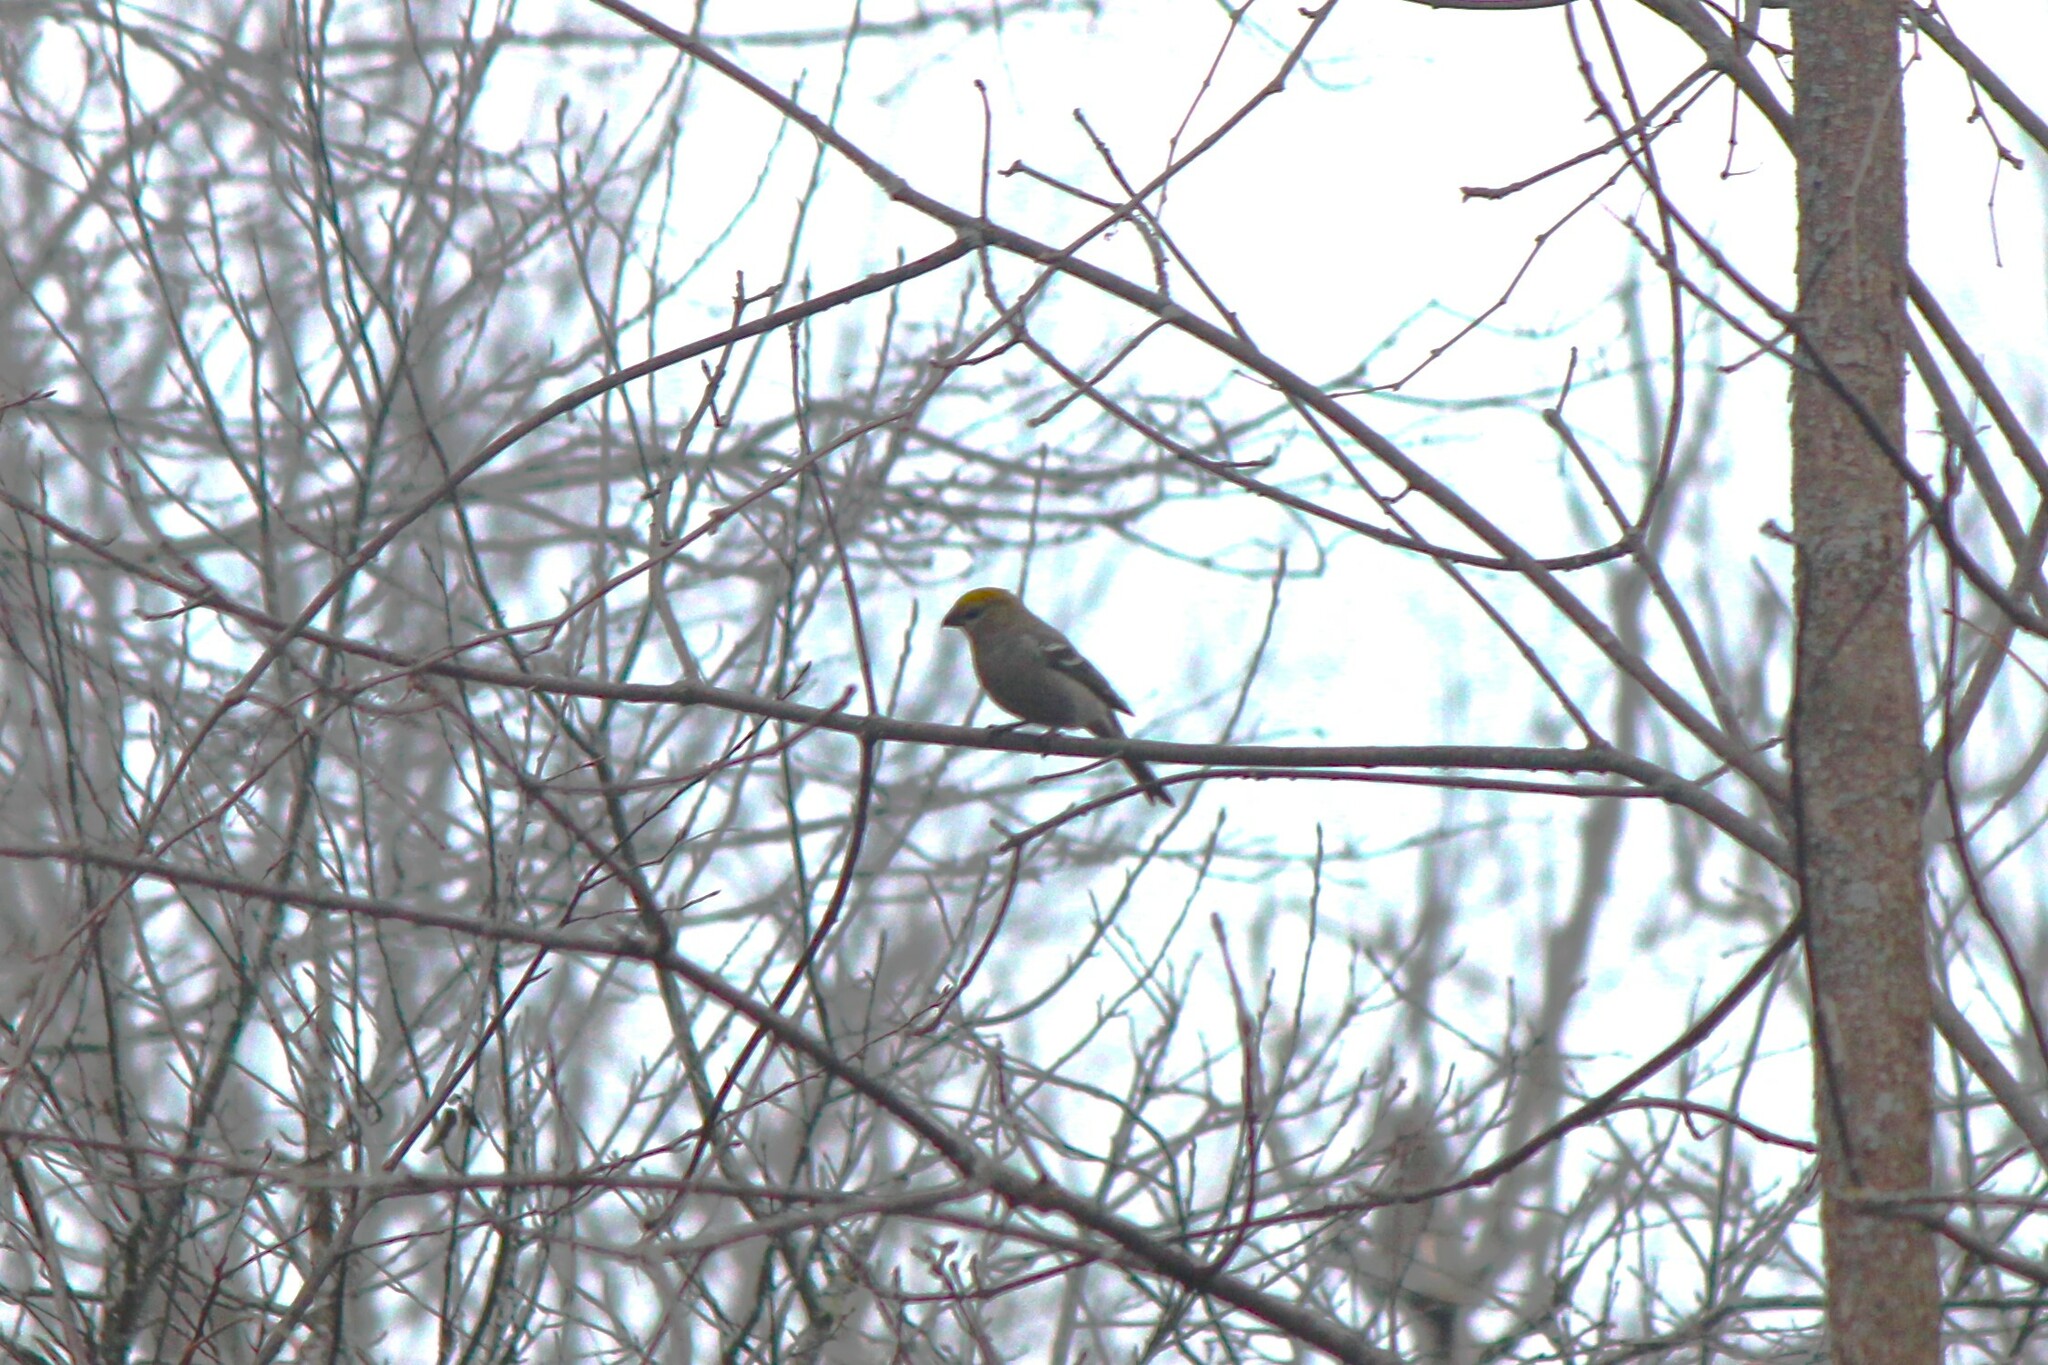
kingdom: Animalia
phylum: Chordata
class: Aves
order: Passeriformes
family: Fringillidae
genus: Pinicola
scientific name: Pinicola enucleator
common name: Pine grosbeak
